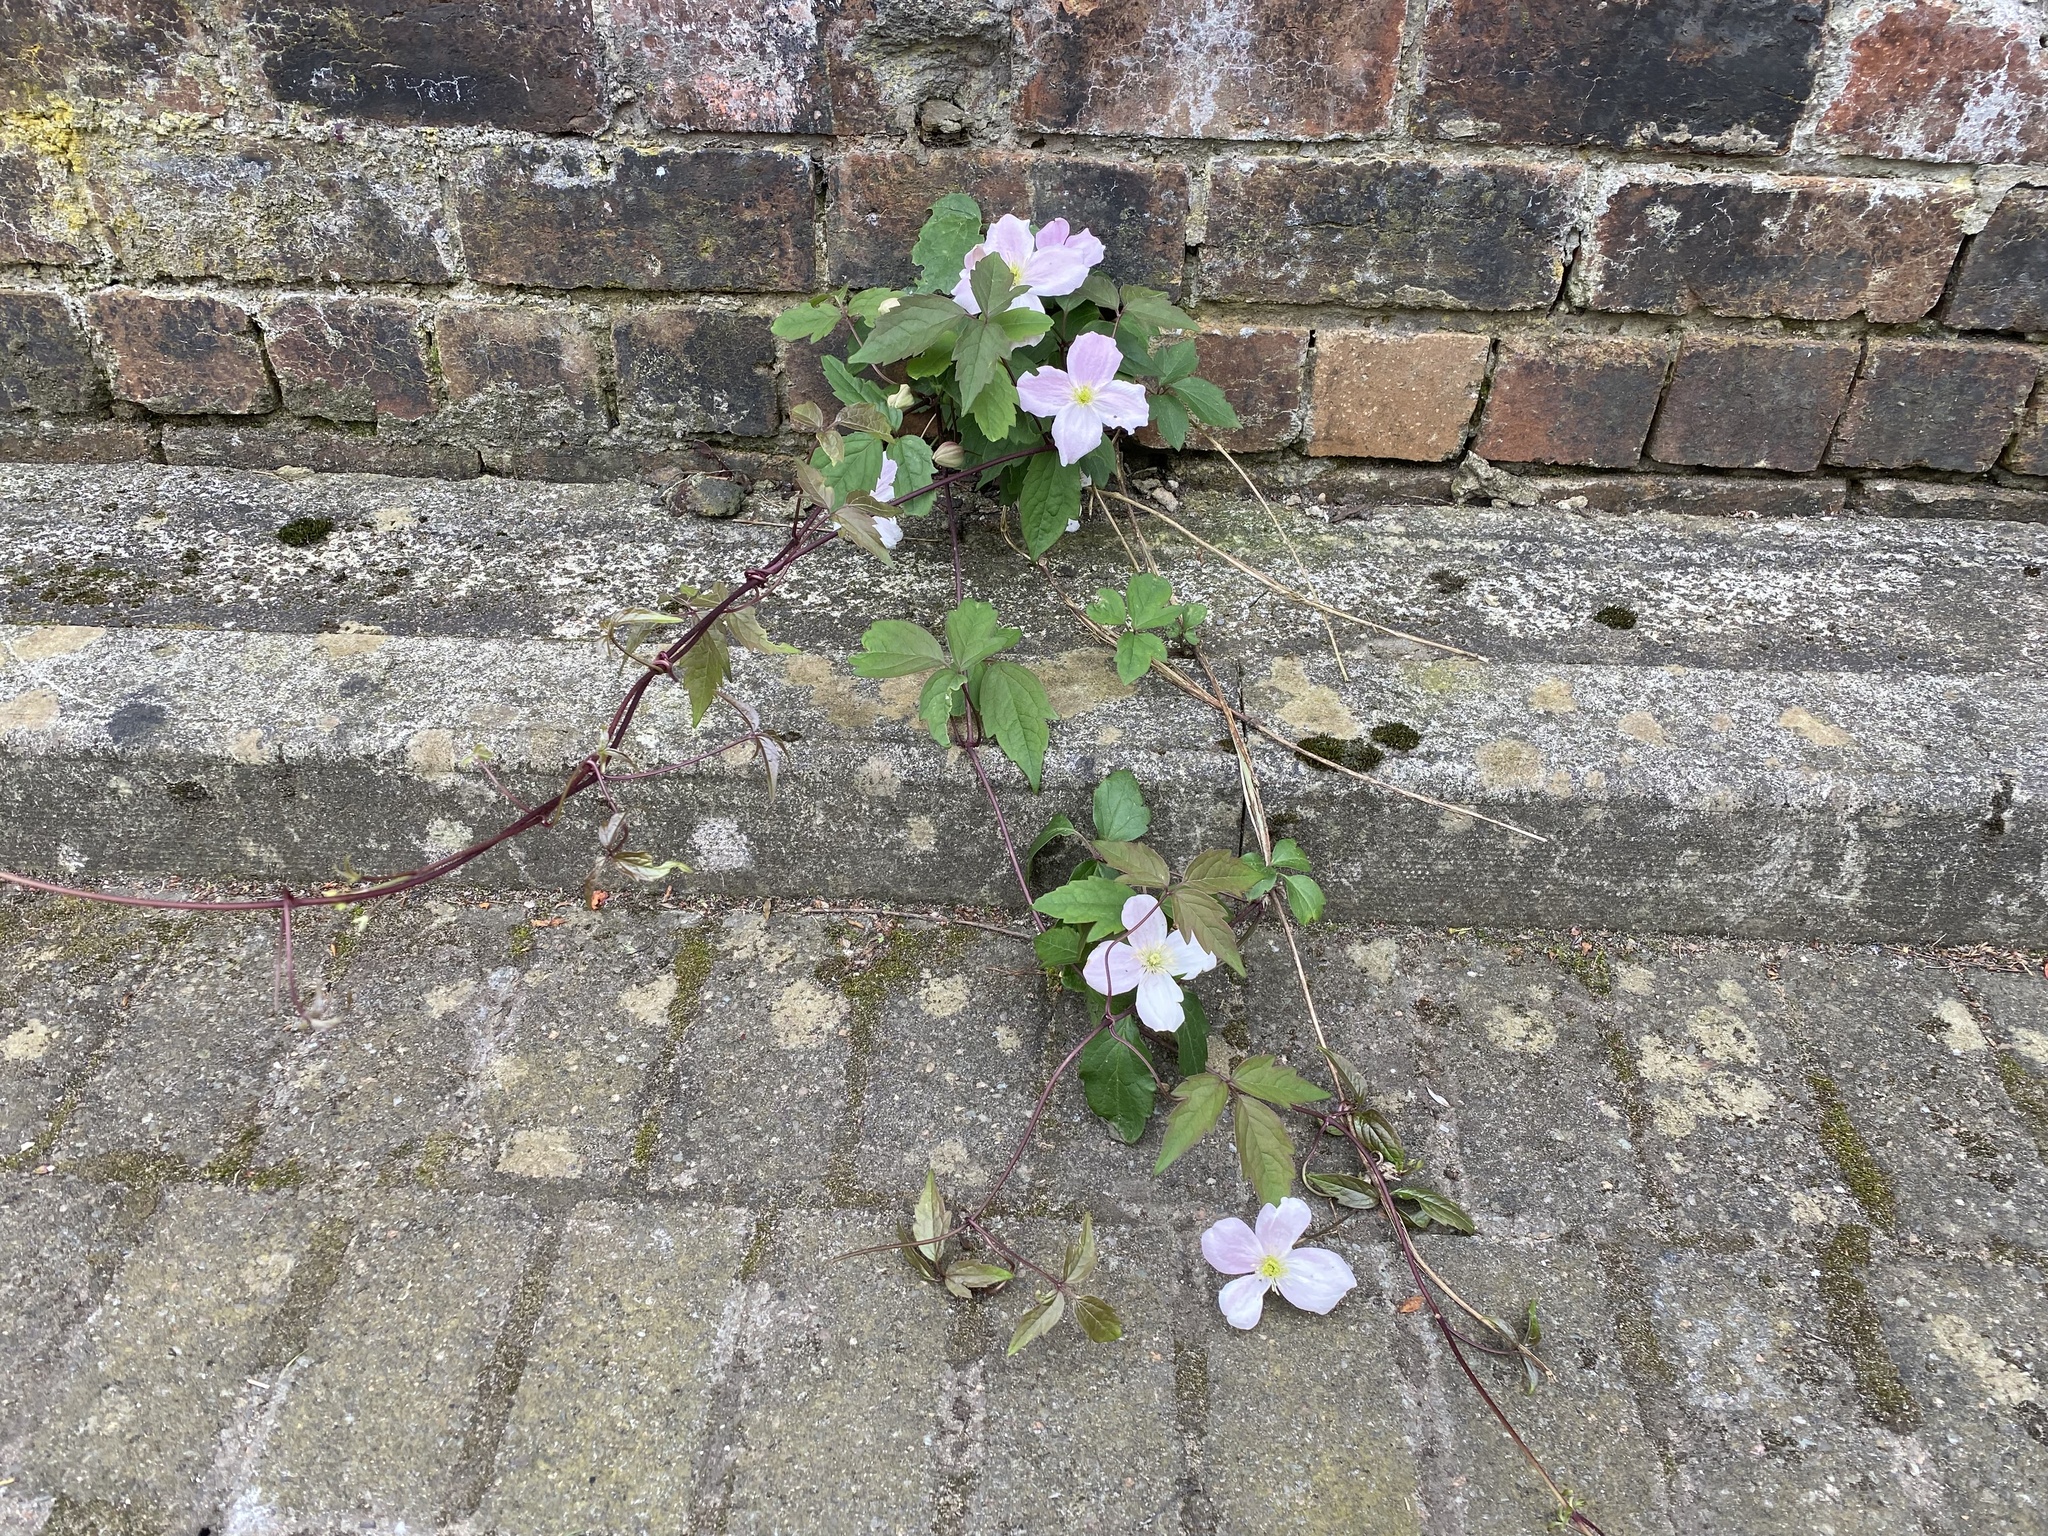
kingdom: Plantae
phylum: Tracheophyta
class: Magnoliopsida
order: Ranunculales
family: Ranunculaceae
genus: Clematis
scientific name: Clematis montana
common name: Himalayan clematis
